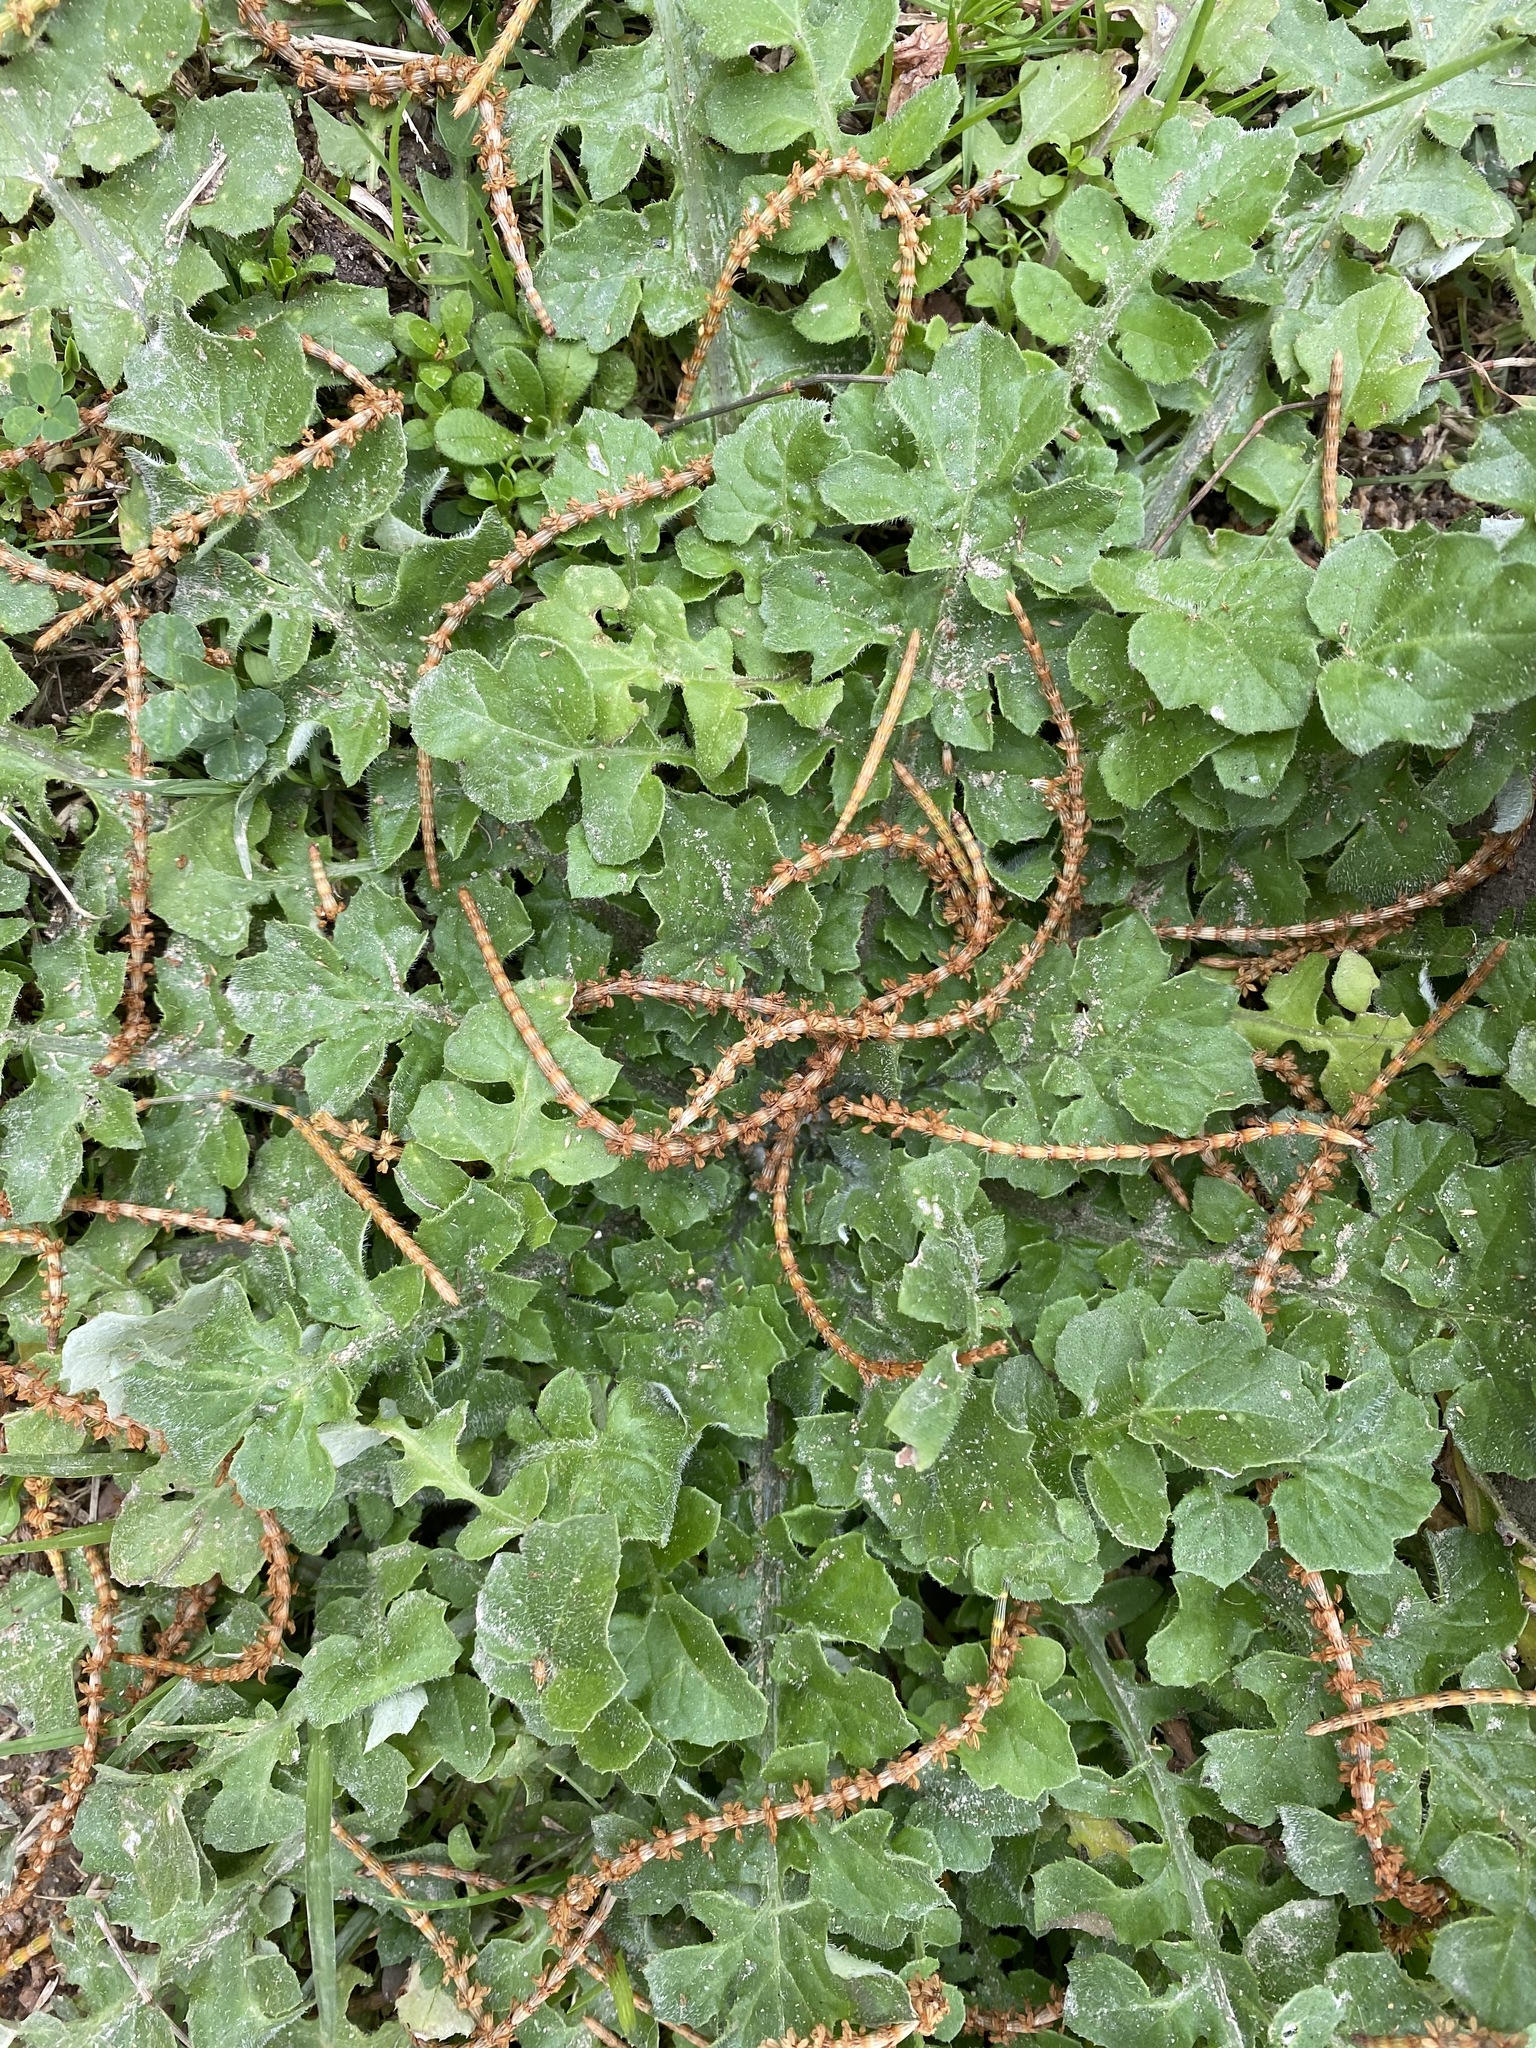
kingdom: Plantae
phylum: Tracheophyta
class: Magnoliopsida
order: Asterales
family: Asteraceae
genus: Arctotheca
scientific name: Arctotheca calendula
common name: Capeweed
